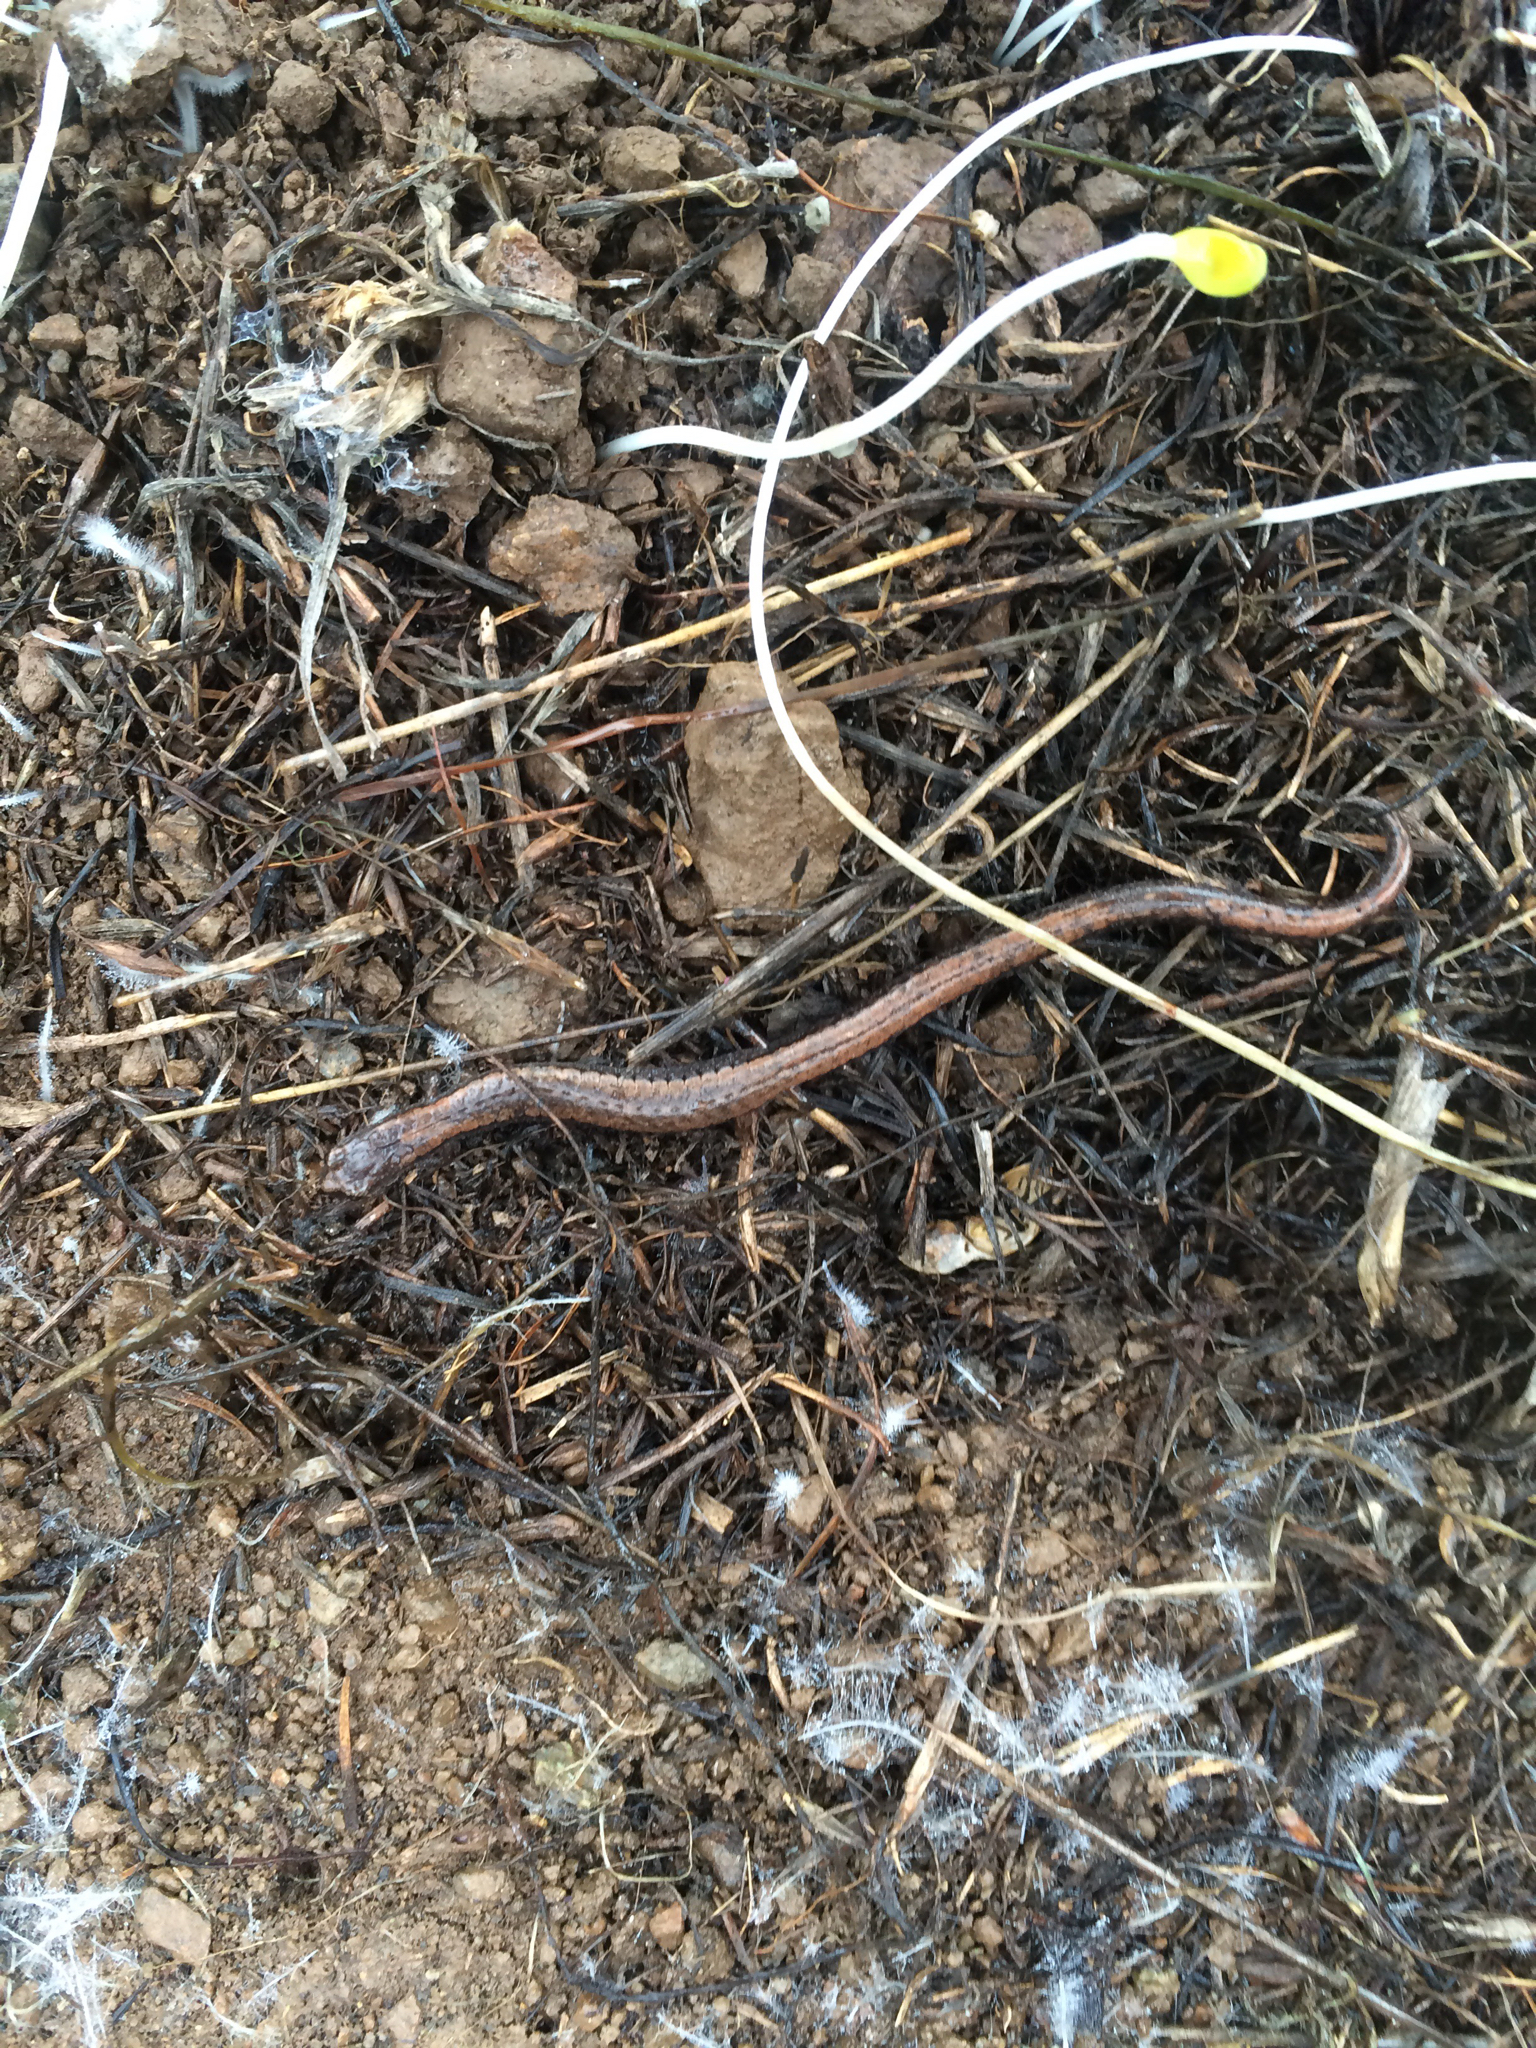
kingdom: Animalia
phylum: Chordata
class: Amphibia
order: Caudata
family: Plethodontidae
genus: Batrachoseps
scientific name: Batrachoseps attenuatus
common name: California slender salamander
